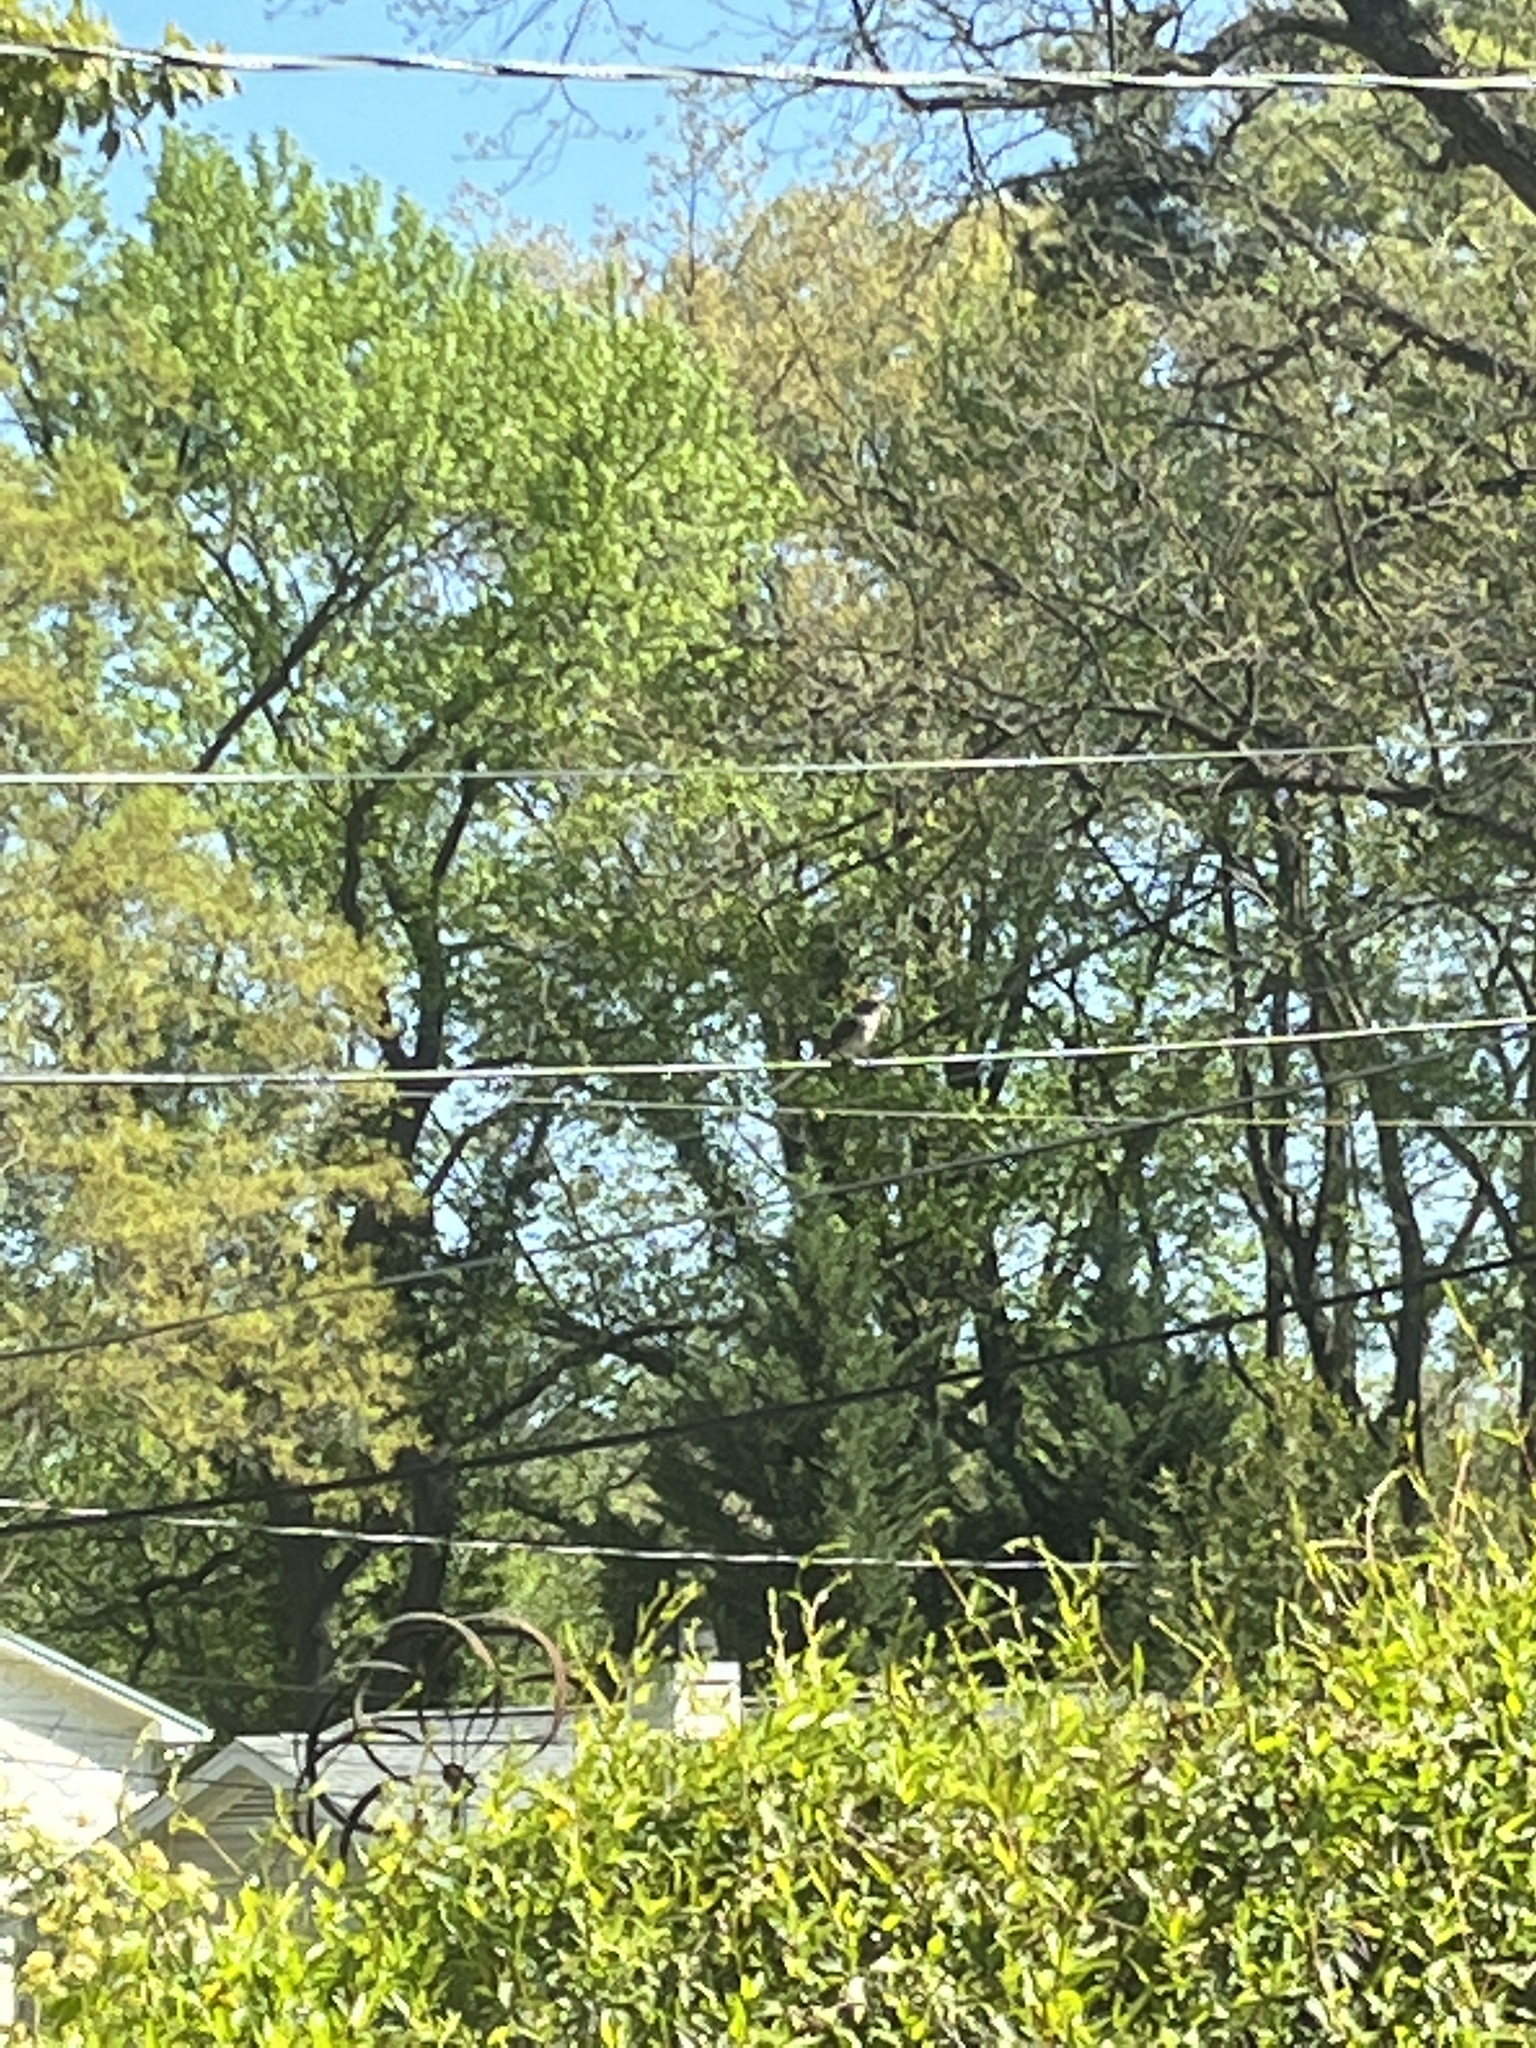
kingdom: Animalia
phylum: Chordata
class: Aves
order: Passeriformes
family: Mimidae
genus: Mimus
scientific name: Mimus polyglottos
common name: Northern mockingbird
